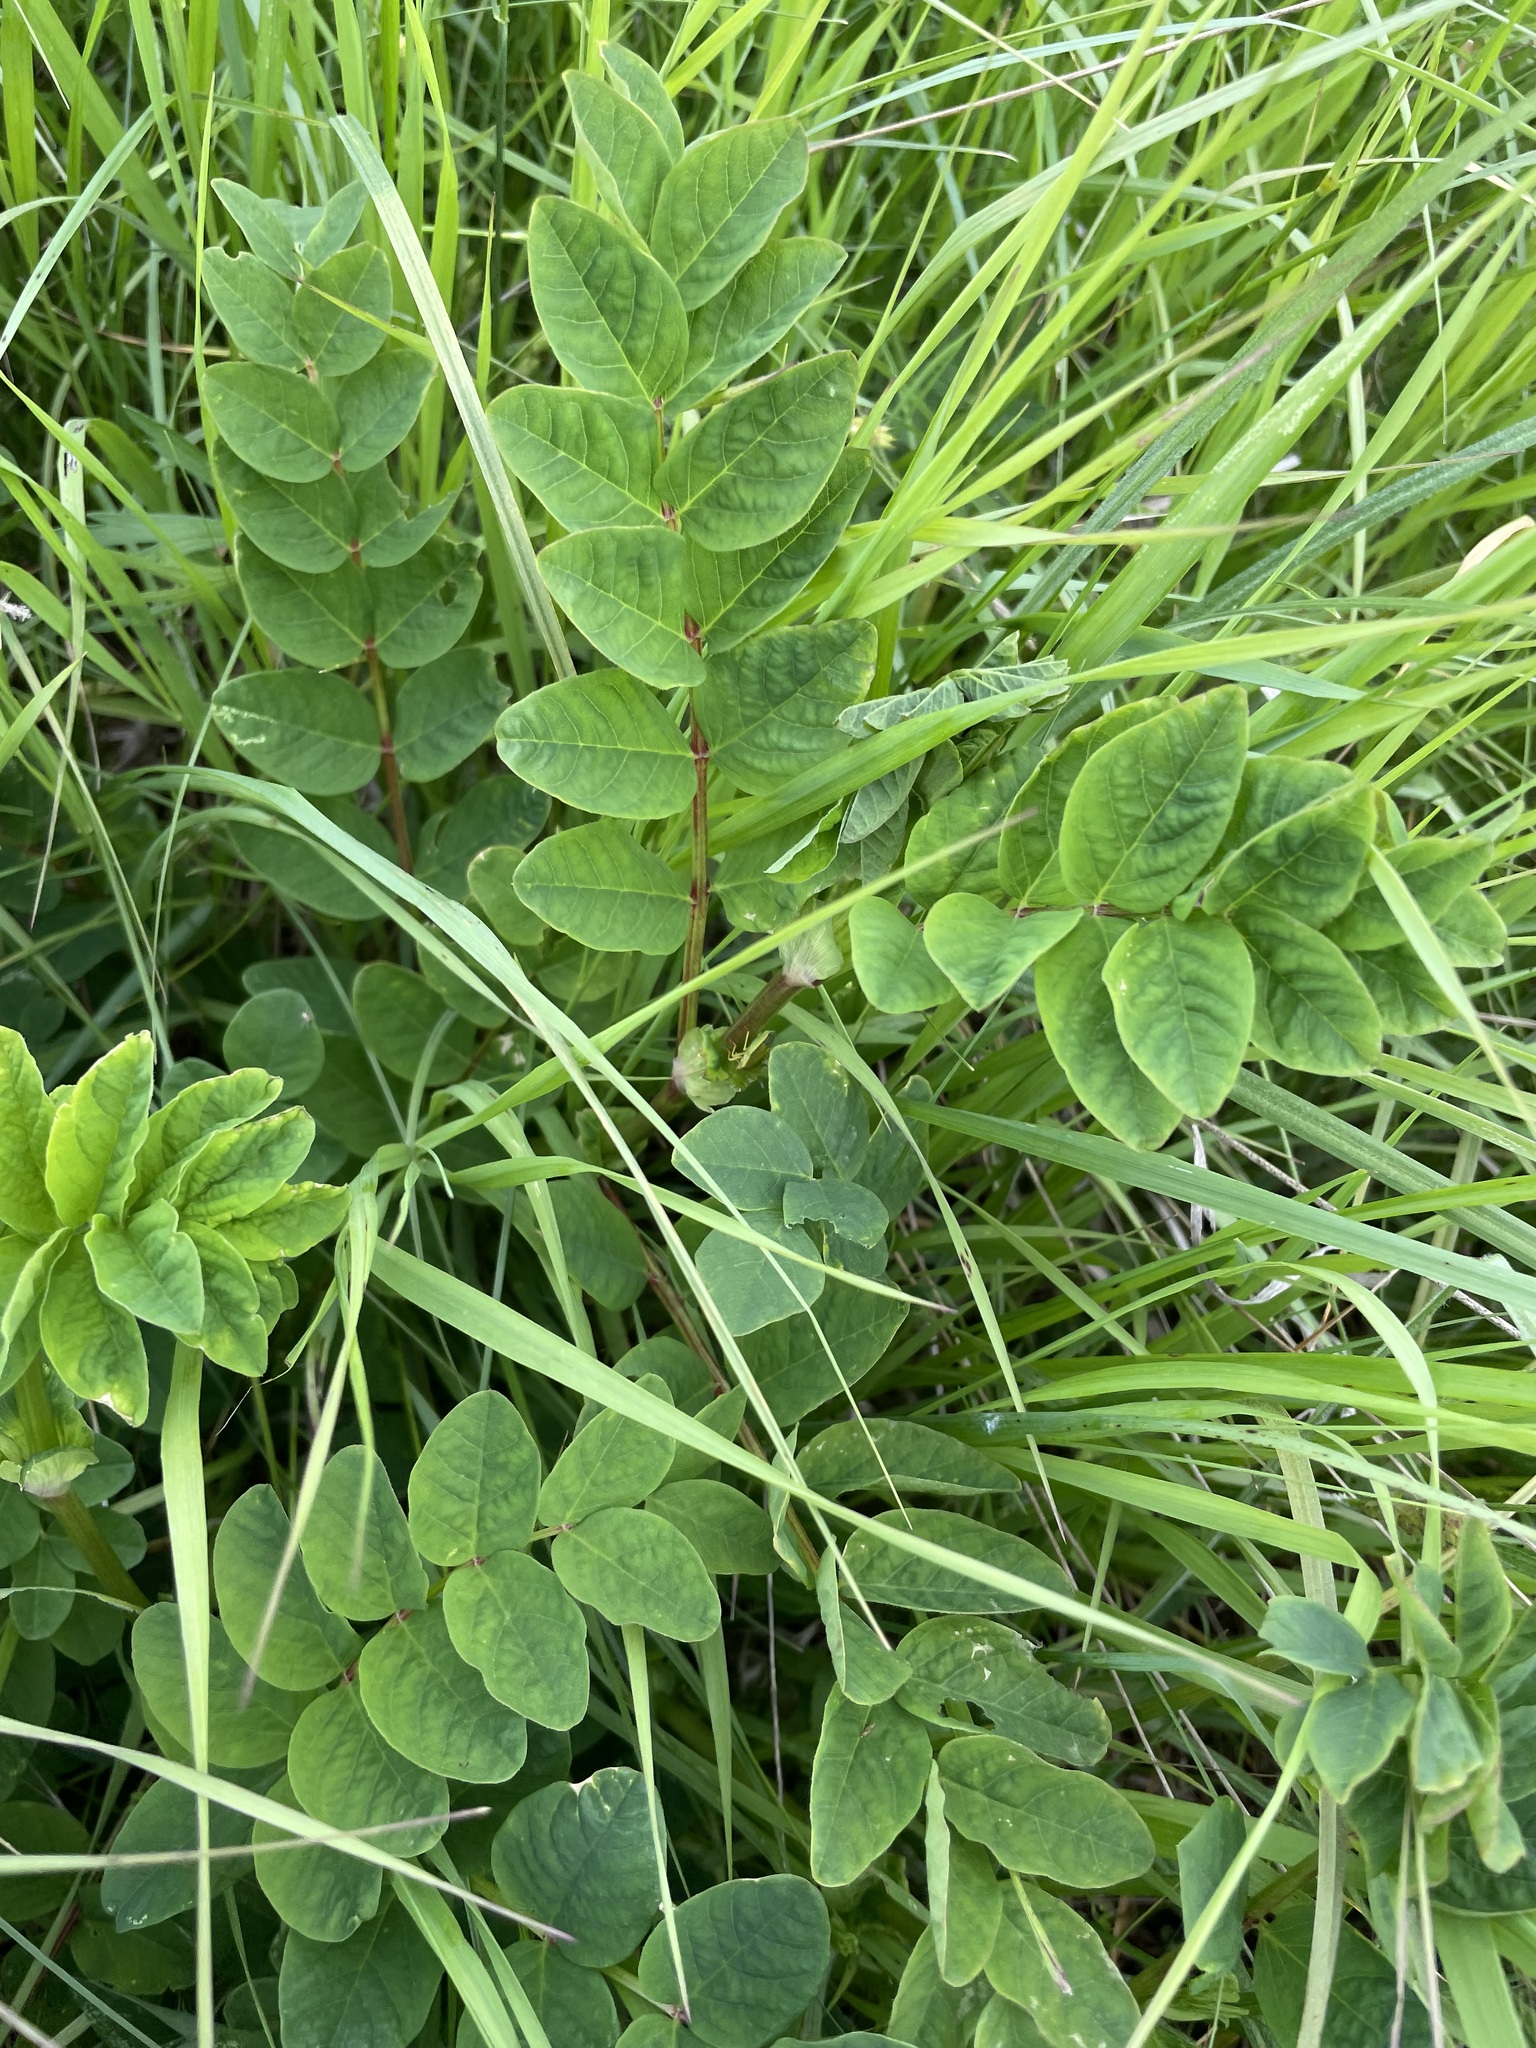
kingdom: Plantae
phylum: Tracheophyta
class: Magnoliopsida
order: Fabales
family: Fabaceae
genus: Astragalus
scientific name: Astragalus glycyphyllos
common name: Wild liquorice
